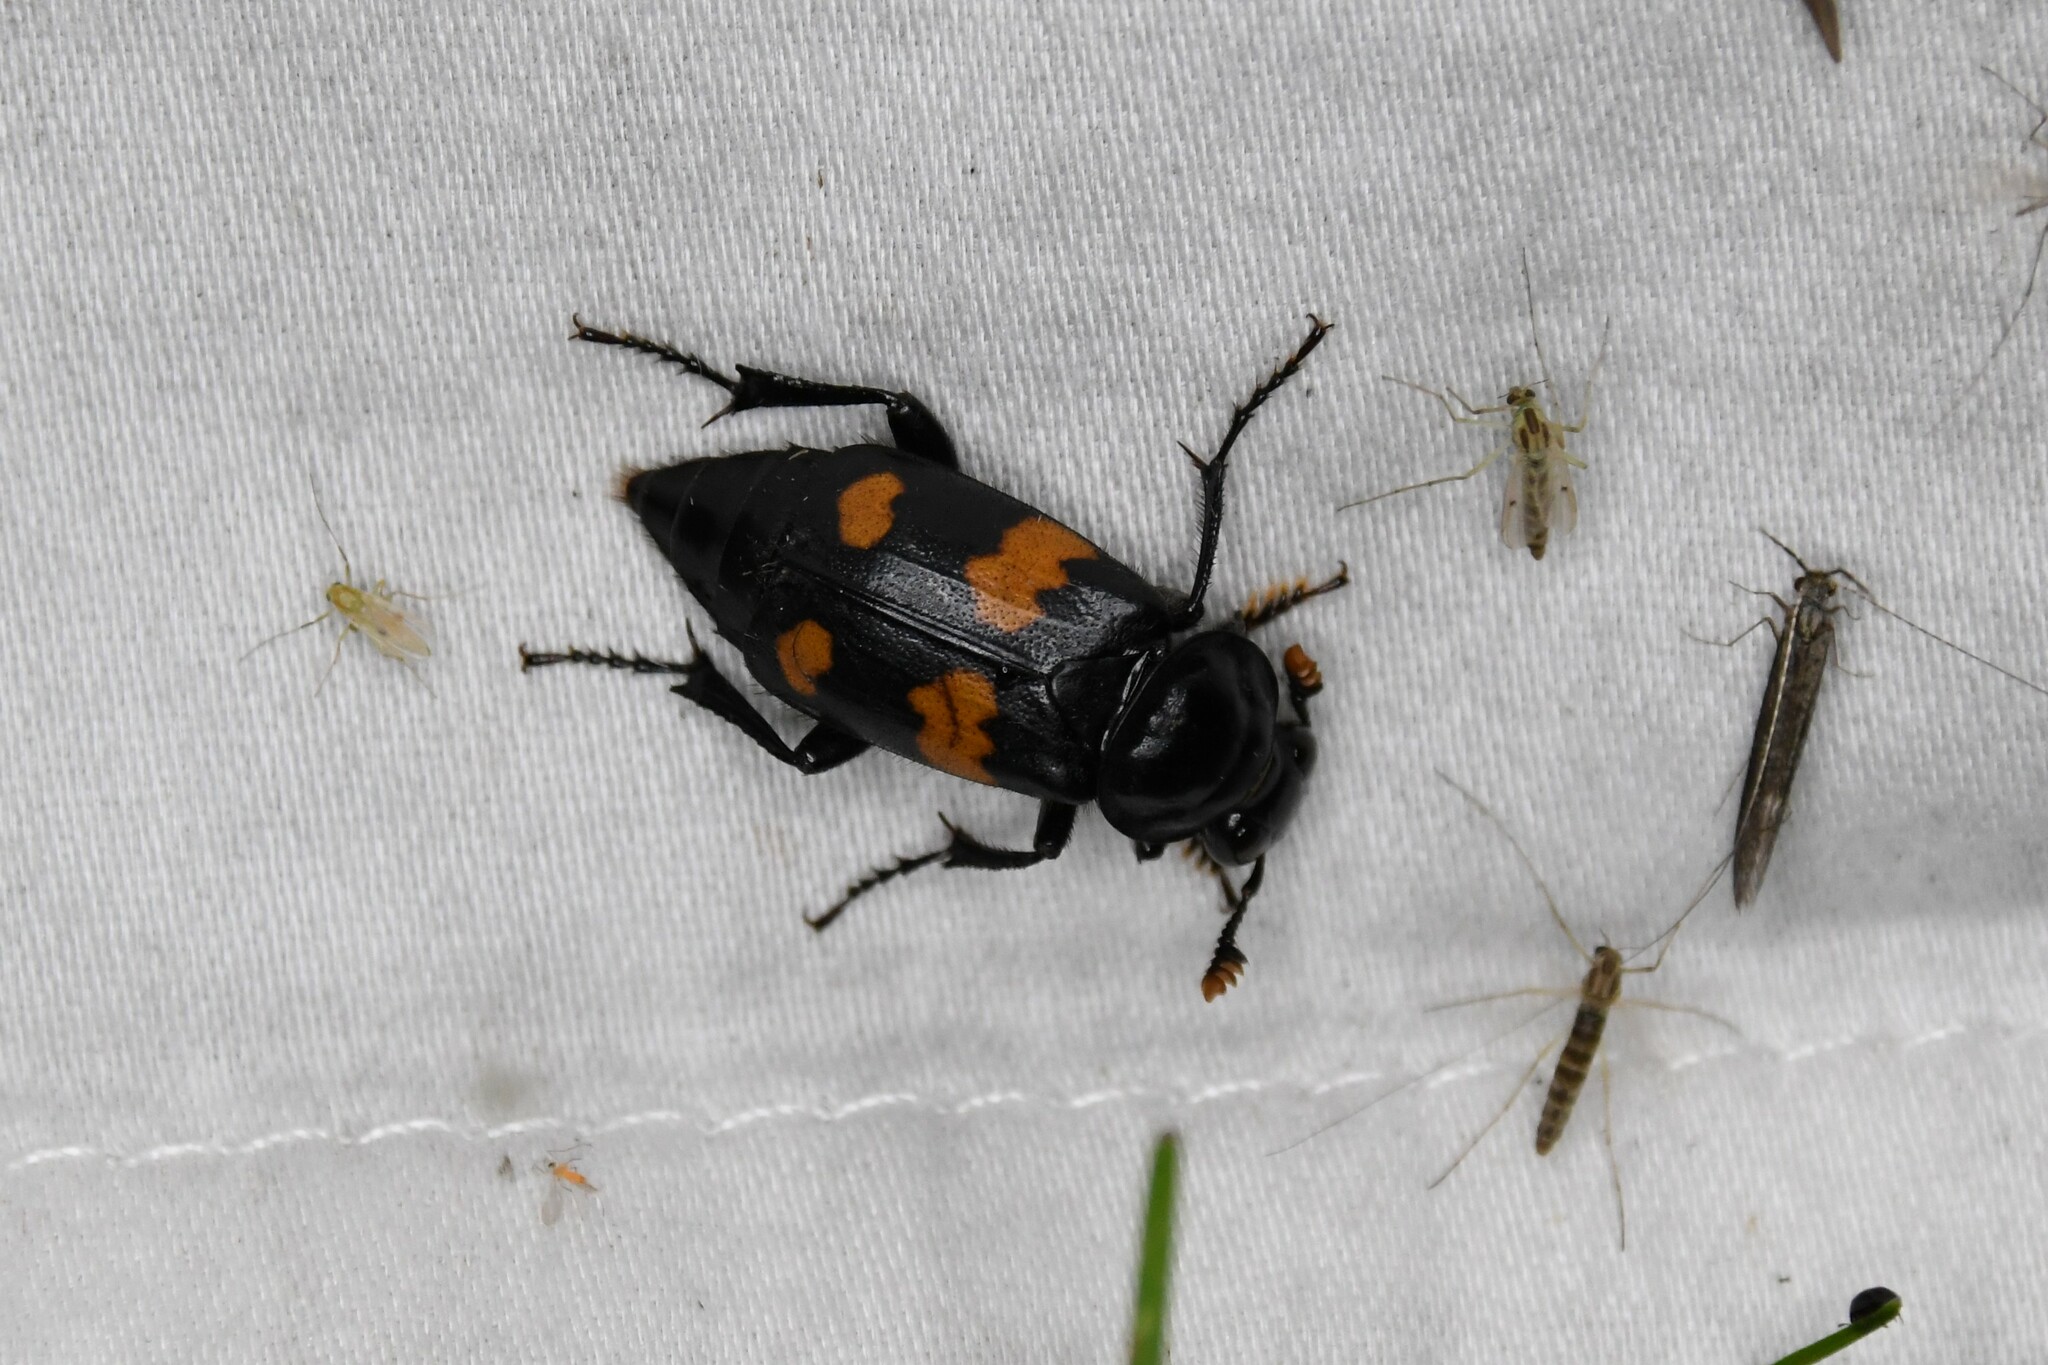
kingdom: Animalia
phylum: Arthropoda
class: Insecta
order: Coleoptera
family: Staphylinidae
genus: Nicrophorus
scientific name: Nicrophorus orbicollis
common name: Roundneck sexton beetle
